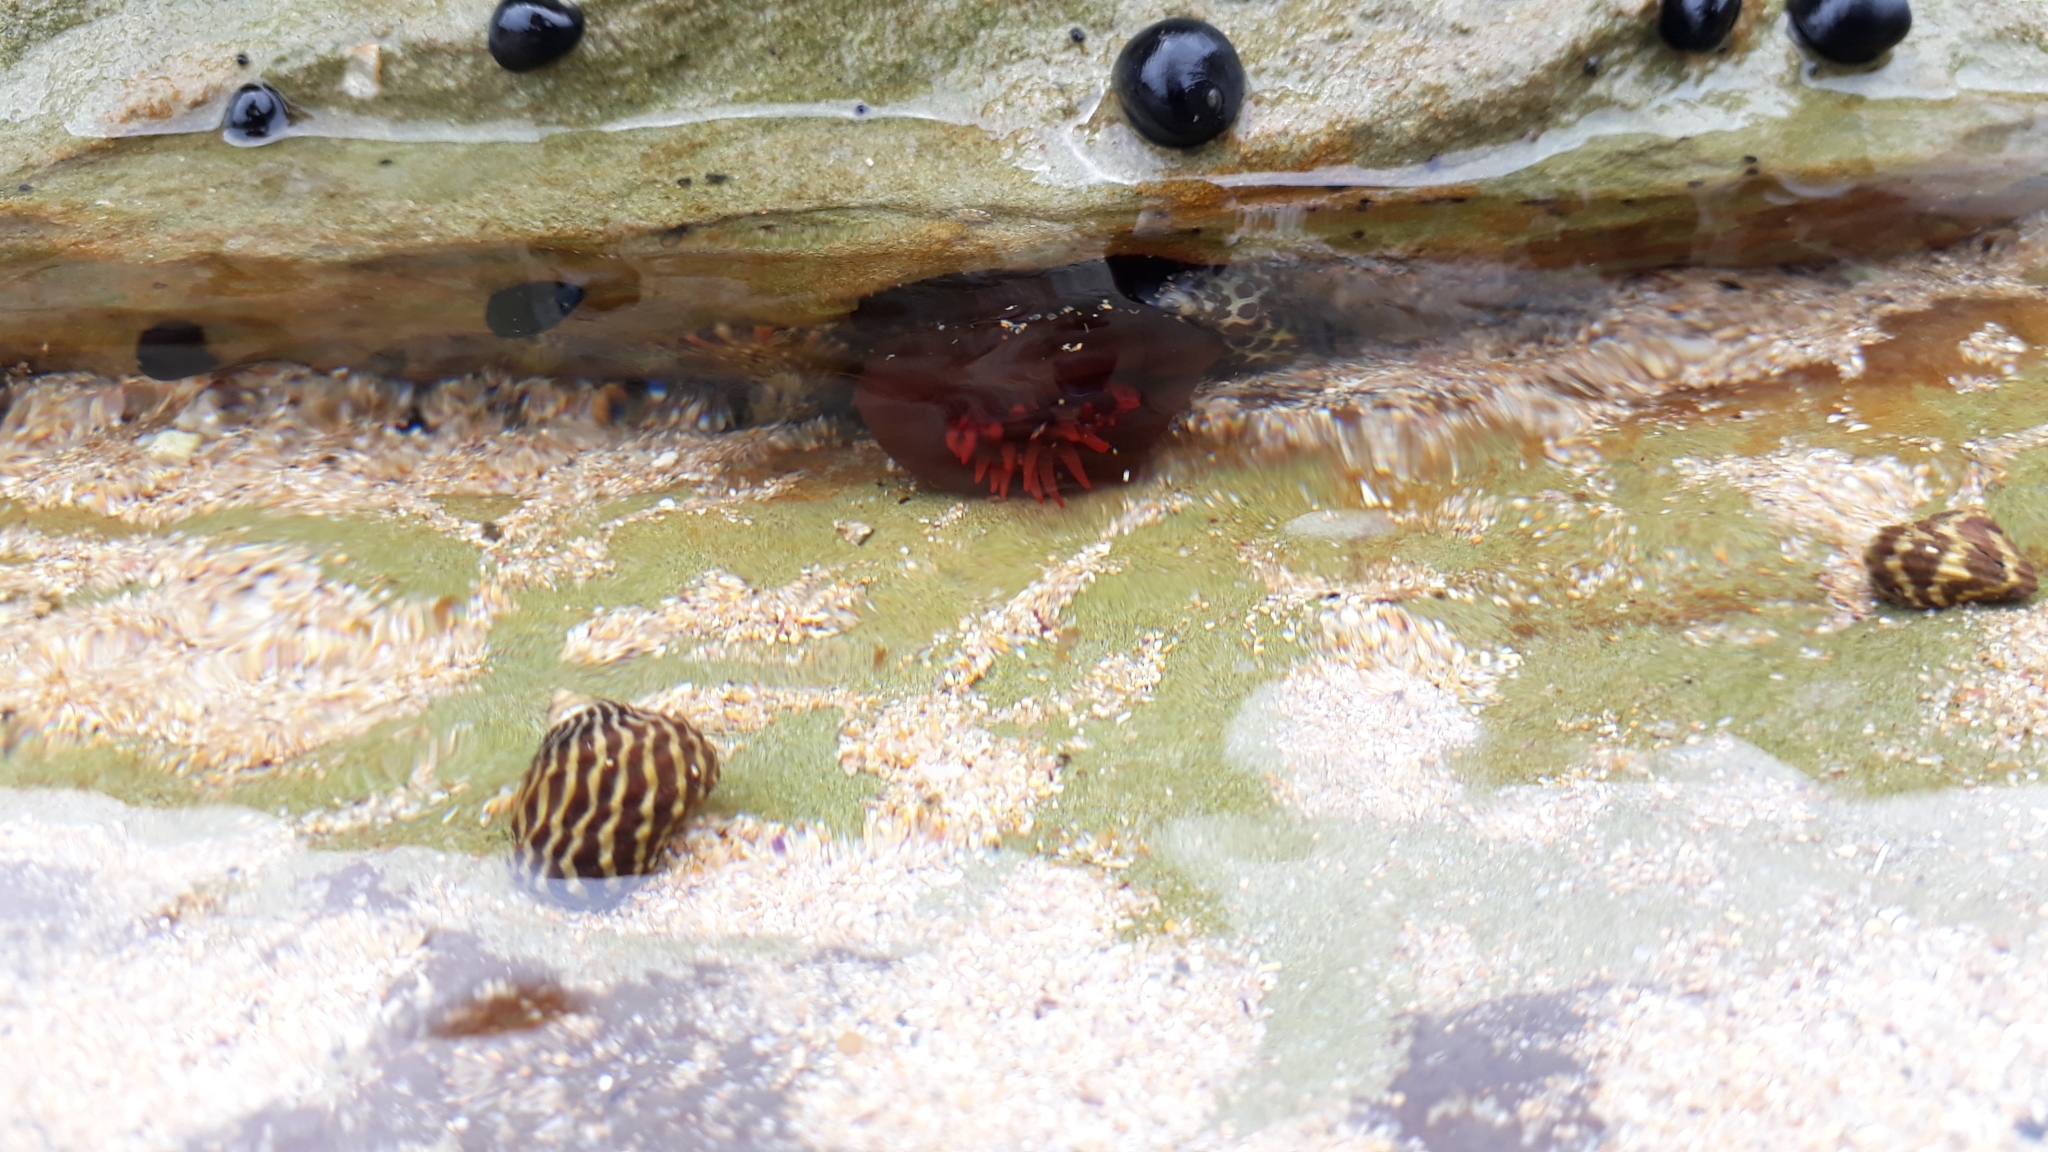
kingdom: Animalia
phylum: Cnidaria
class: Anthozoa
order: Actiniaria
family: Actiniidae
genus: Actinia
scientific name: Actinia tenebrosa
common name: Waratah anemone
